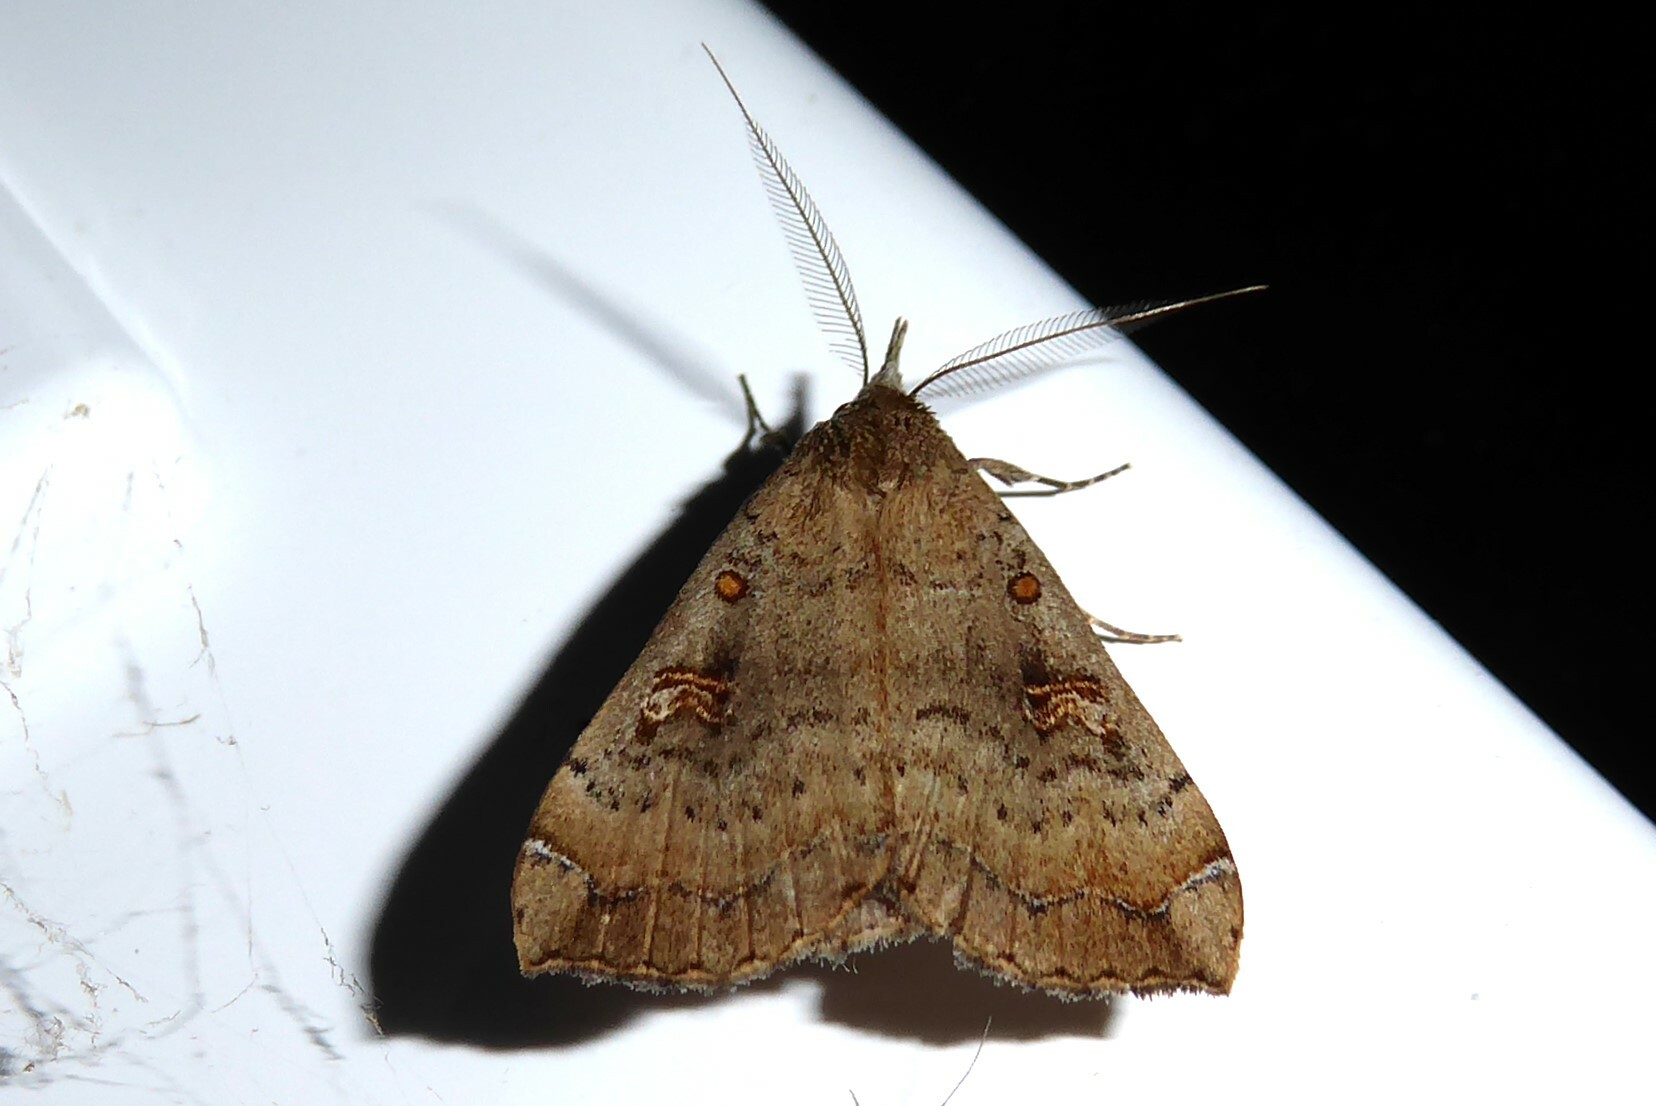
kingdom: Animalia
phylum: Arthropoda
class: Insecta
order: Lepidoptera
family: Erebidae
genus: Rhapsa
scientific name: Rhapsa scotosialis
